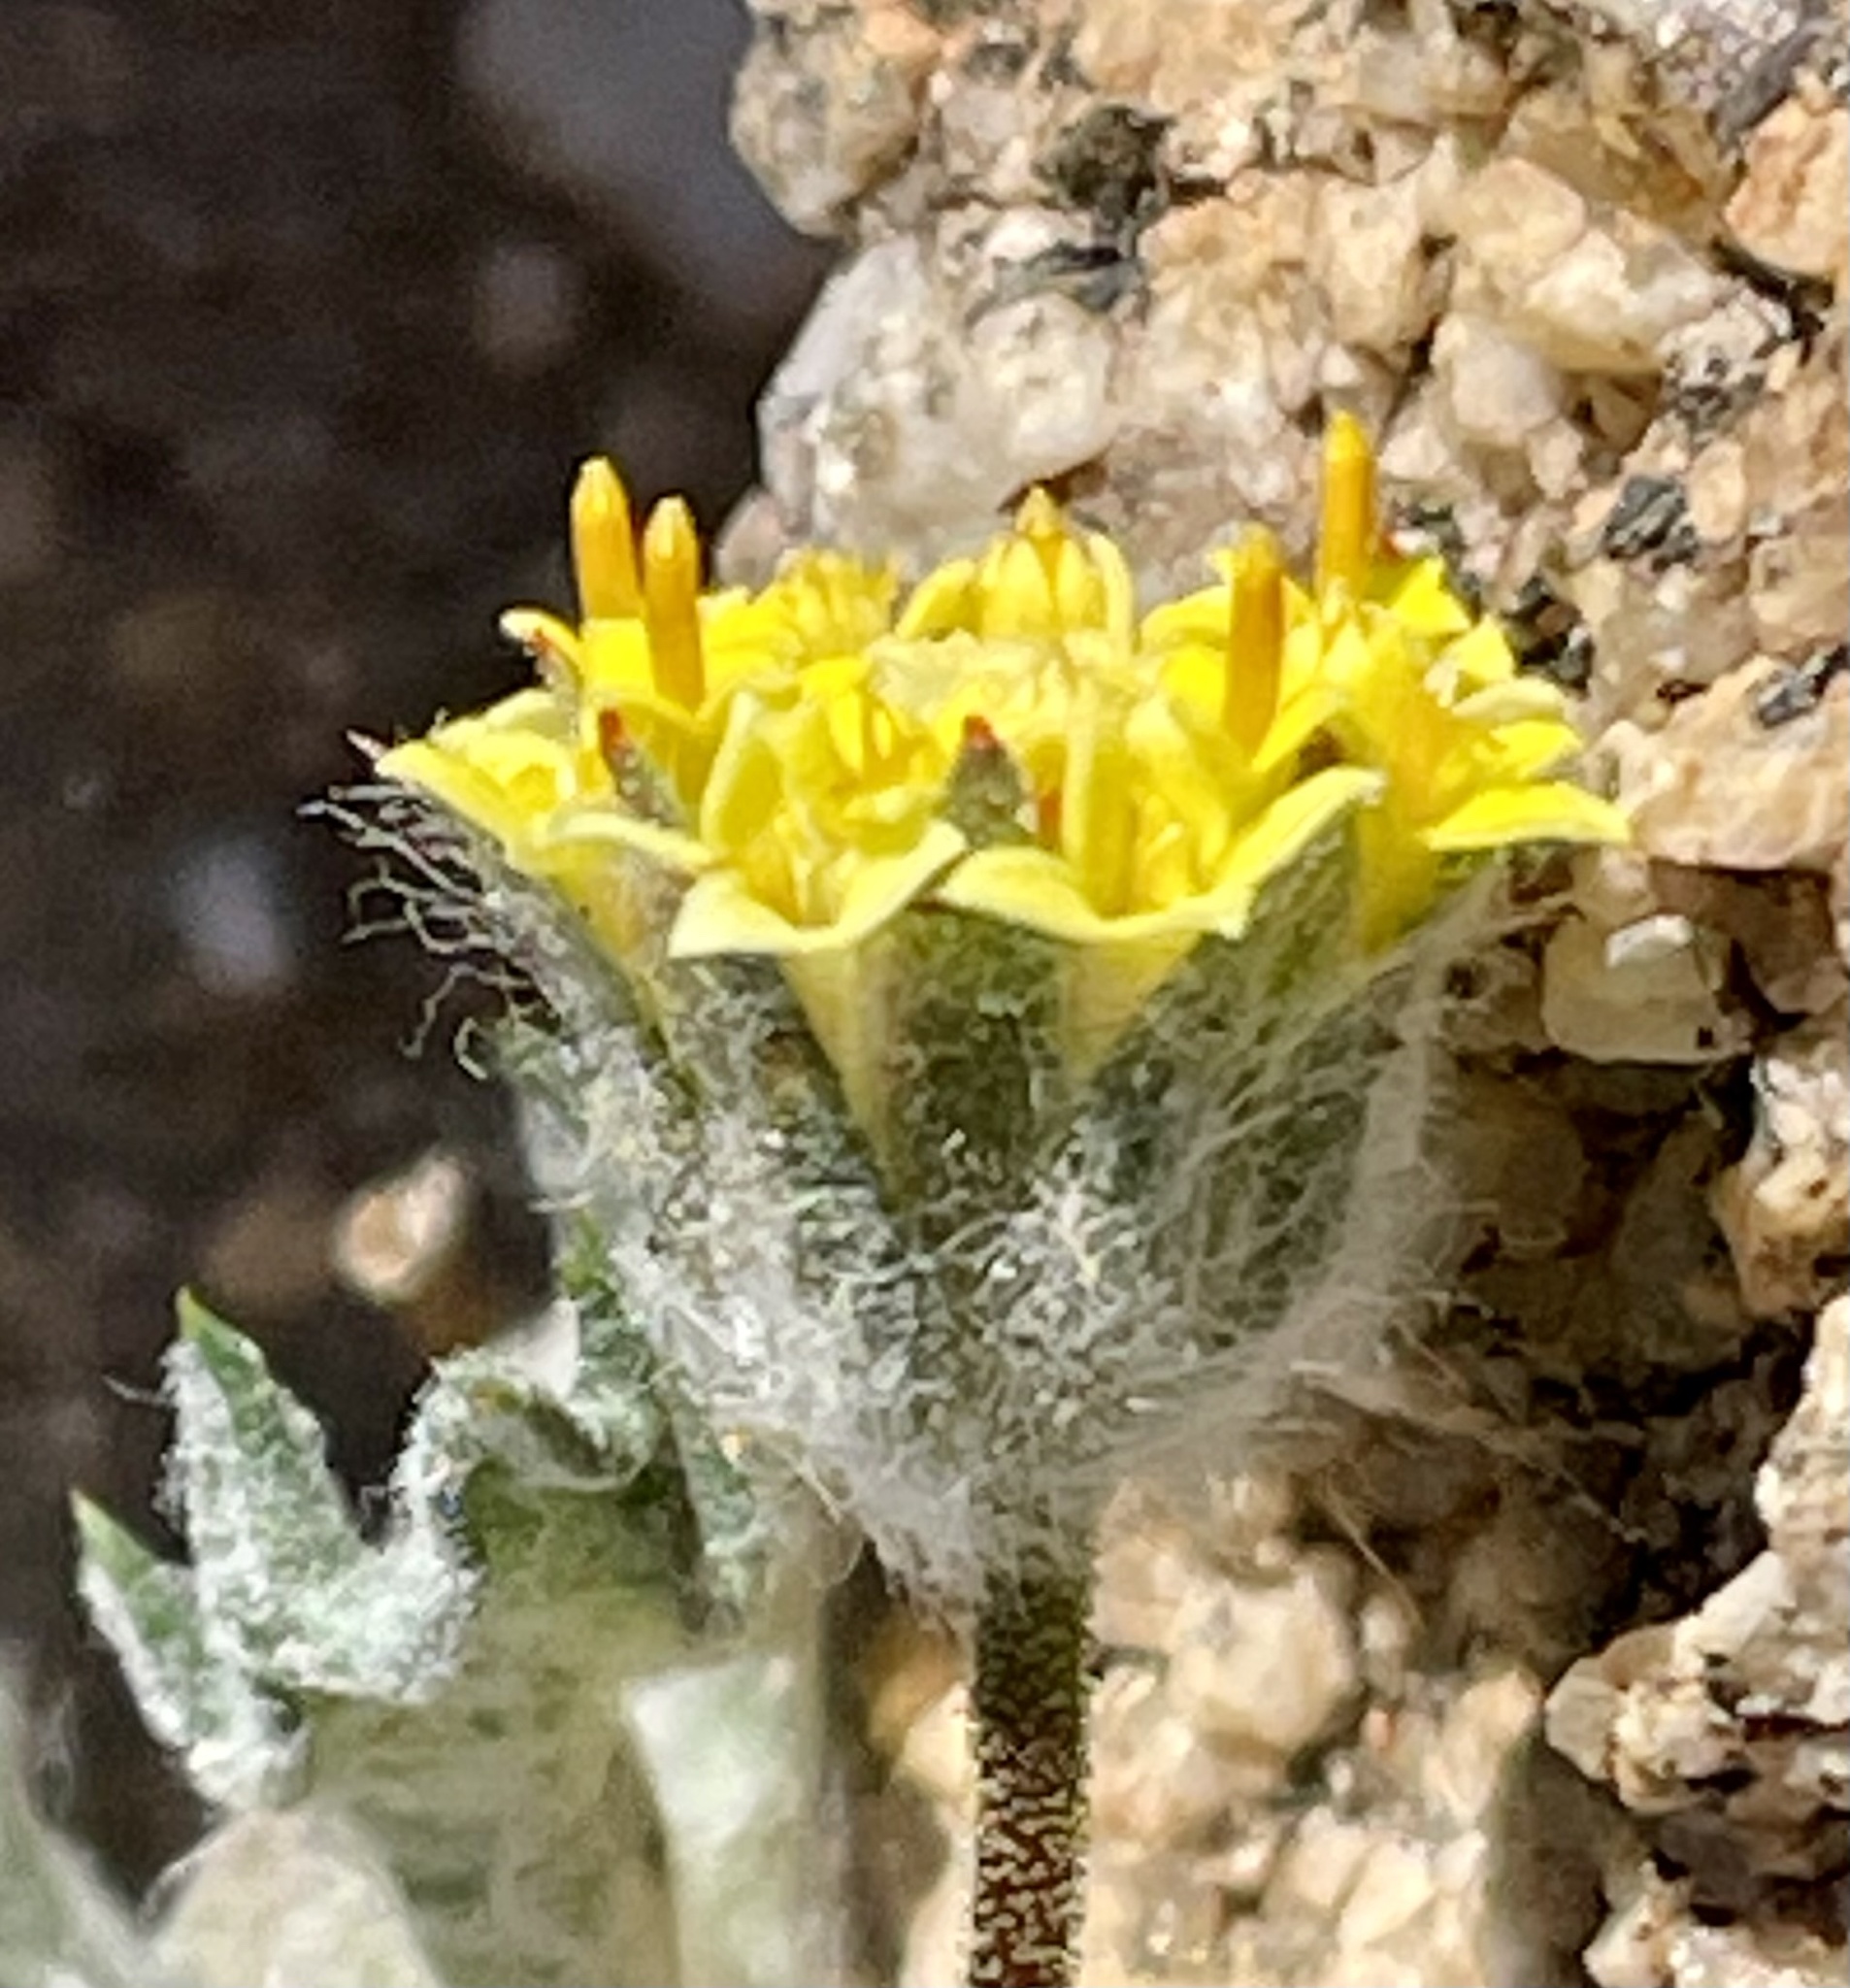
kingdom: Plantae
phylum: Tracheophyta
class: Magnoliopsida
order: Asterales
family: Asteraceae
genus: Trichoptilium
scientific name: Trichoptilium incisum
